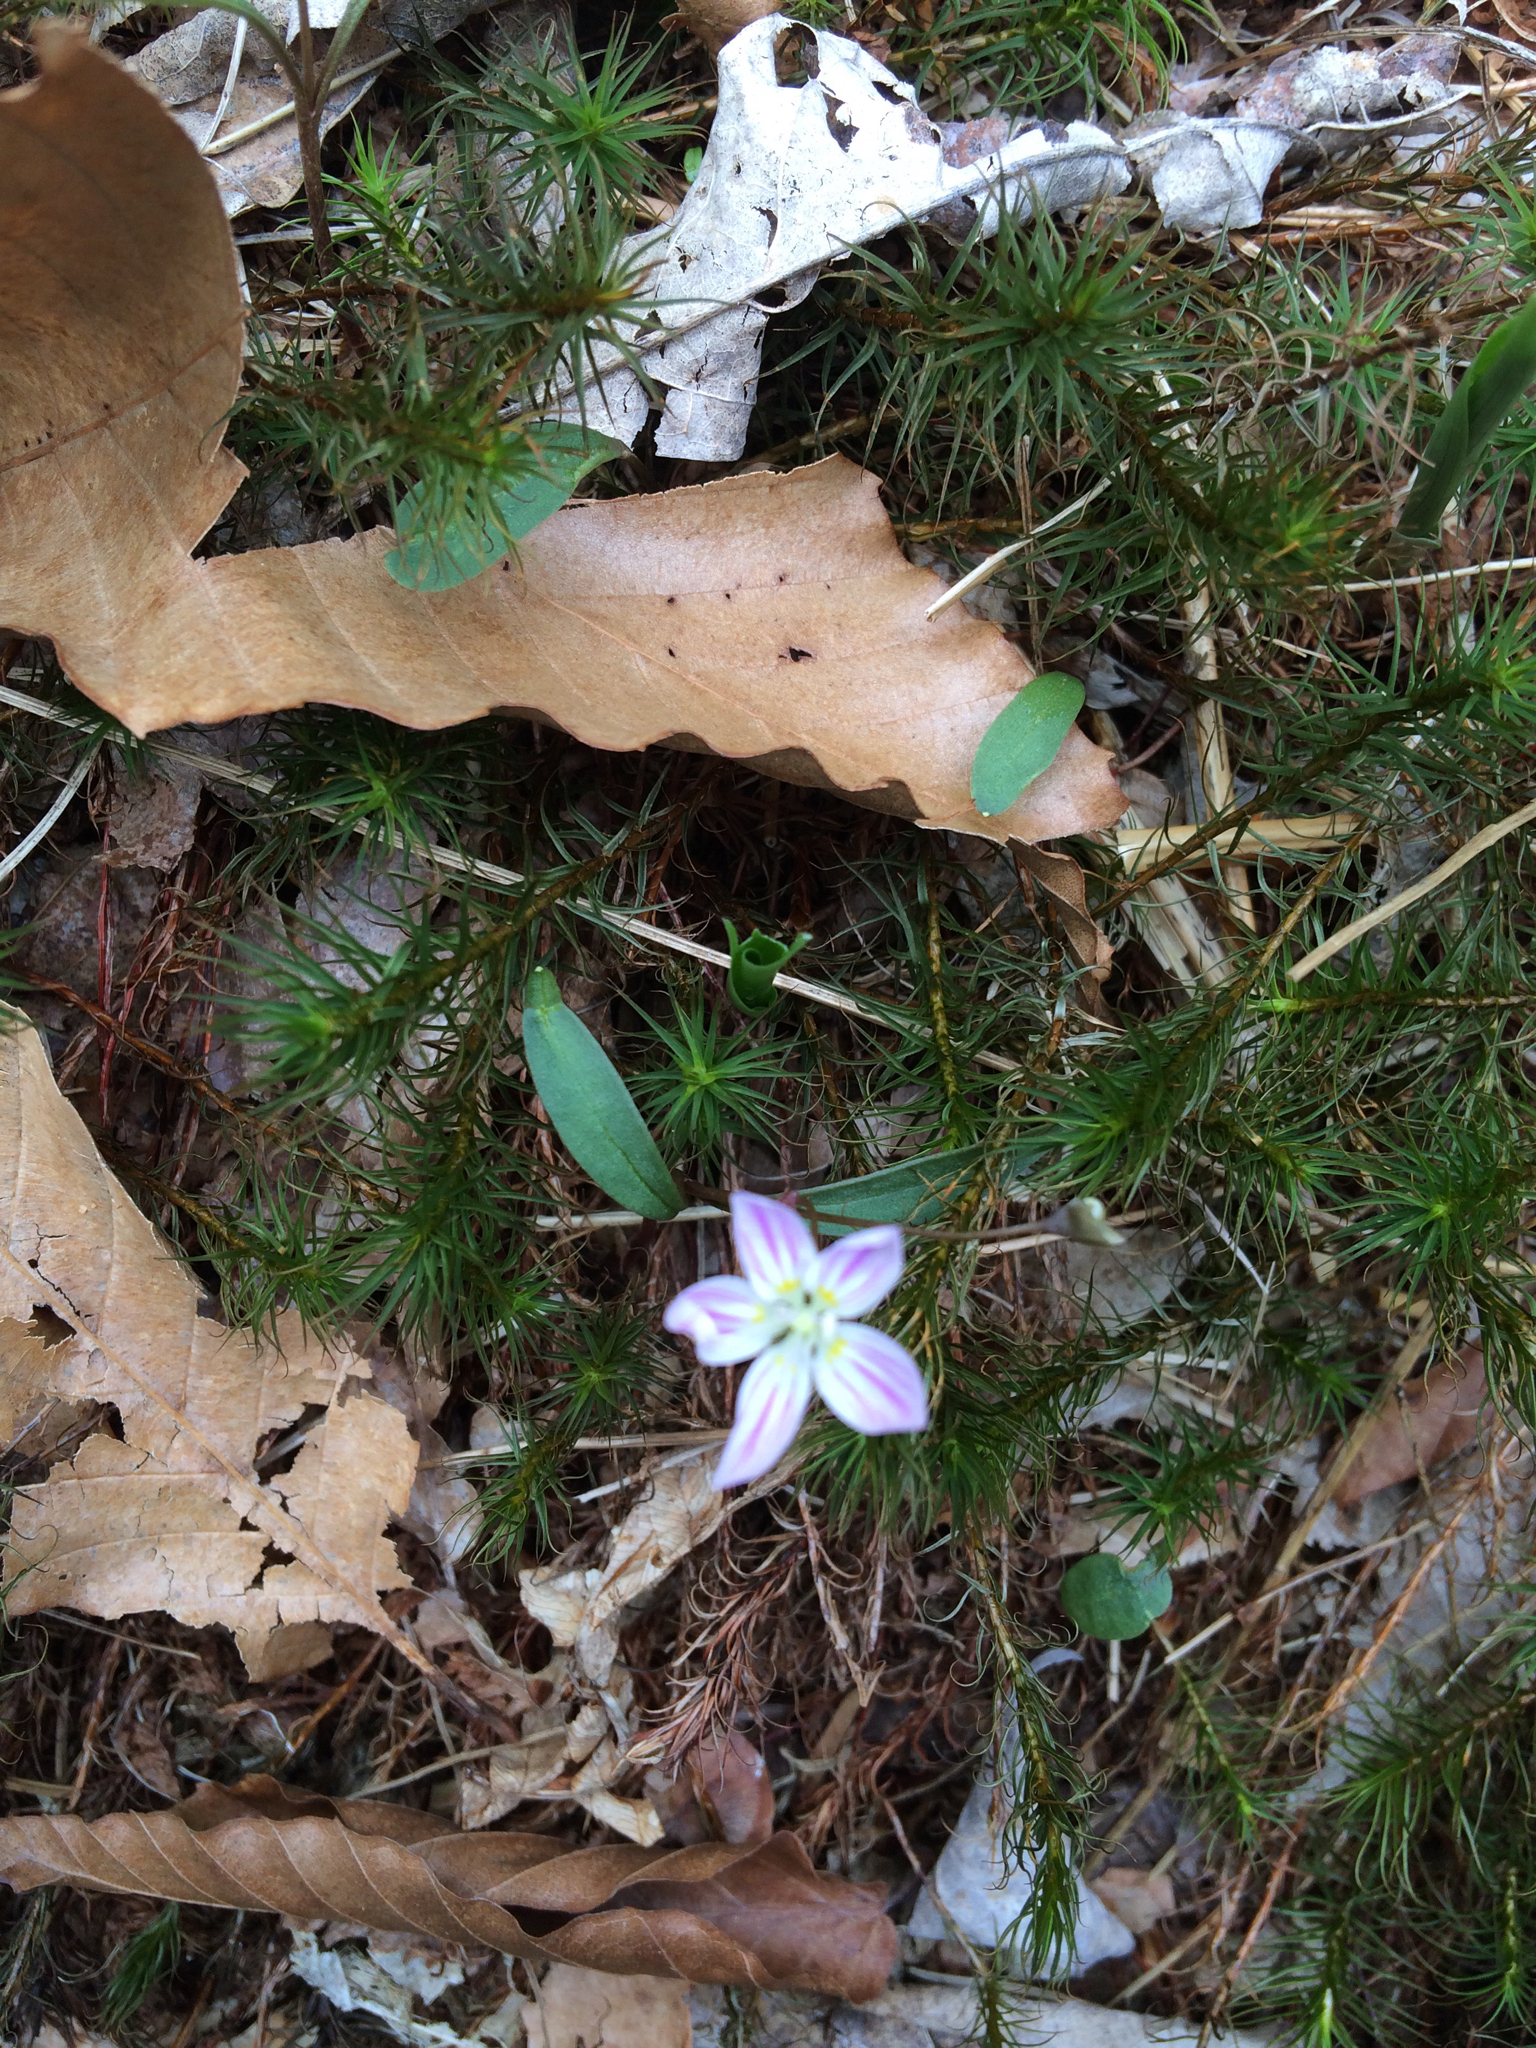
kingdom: Plantae
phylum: Tracheophyta
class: Magnoliopsida
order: Caryophyllales
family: Montiaceae
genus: Claytonia
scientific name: Claytonia caroliniana
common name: Carolina spring beauty
